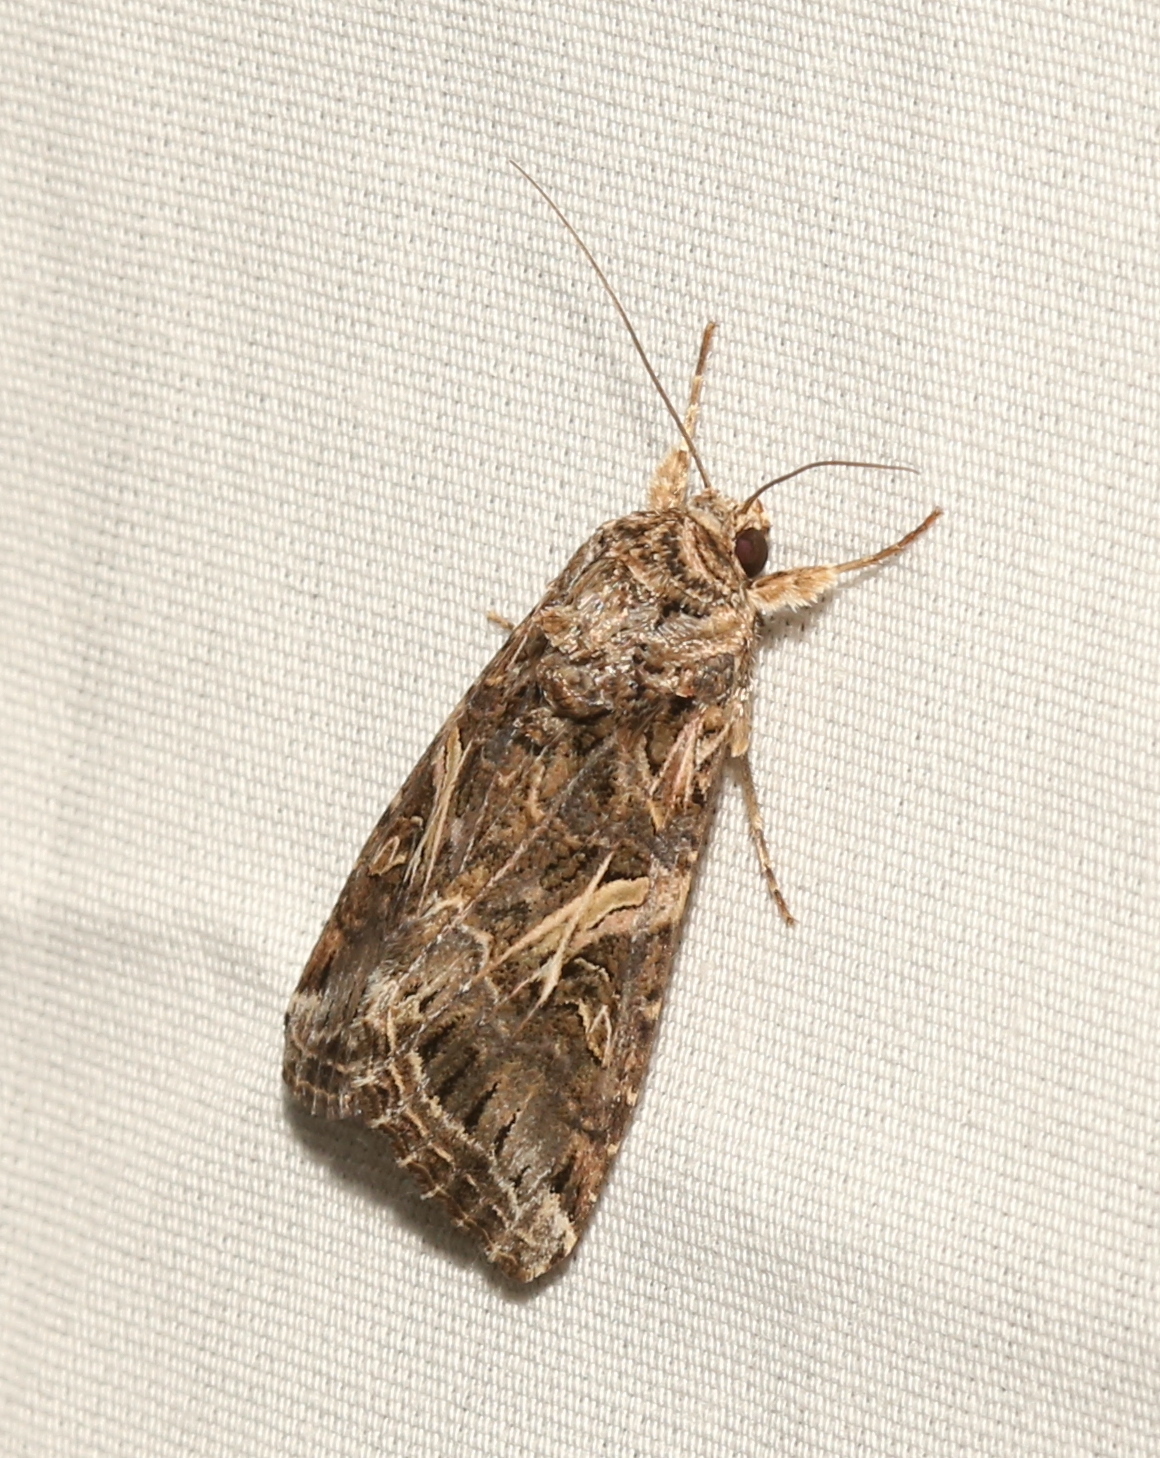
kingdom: Animalia
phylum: Arthropoda
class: Insecta
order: Lepidoptera
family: Noctuidae
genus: Spodoptera
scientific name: Spodoptera ornithogalli
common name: Yellow-striped armyworm
